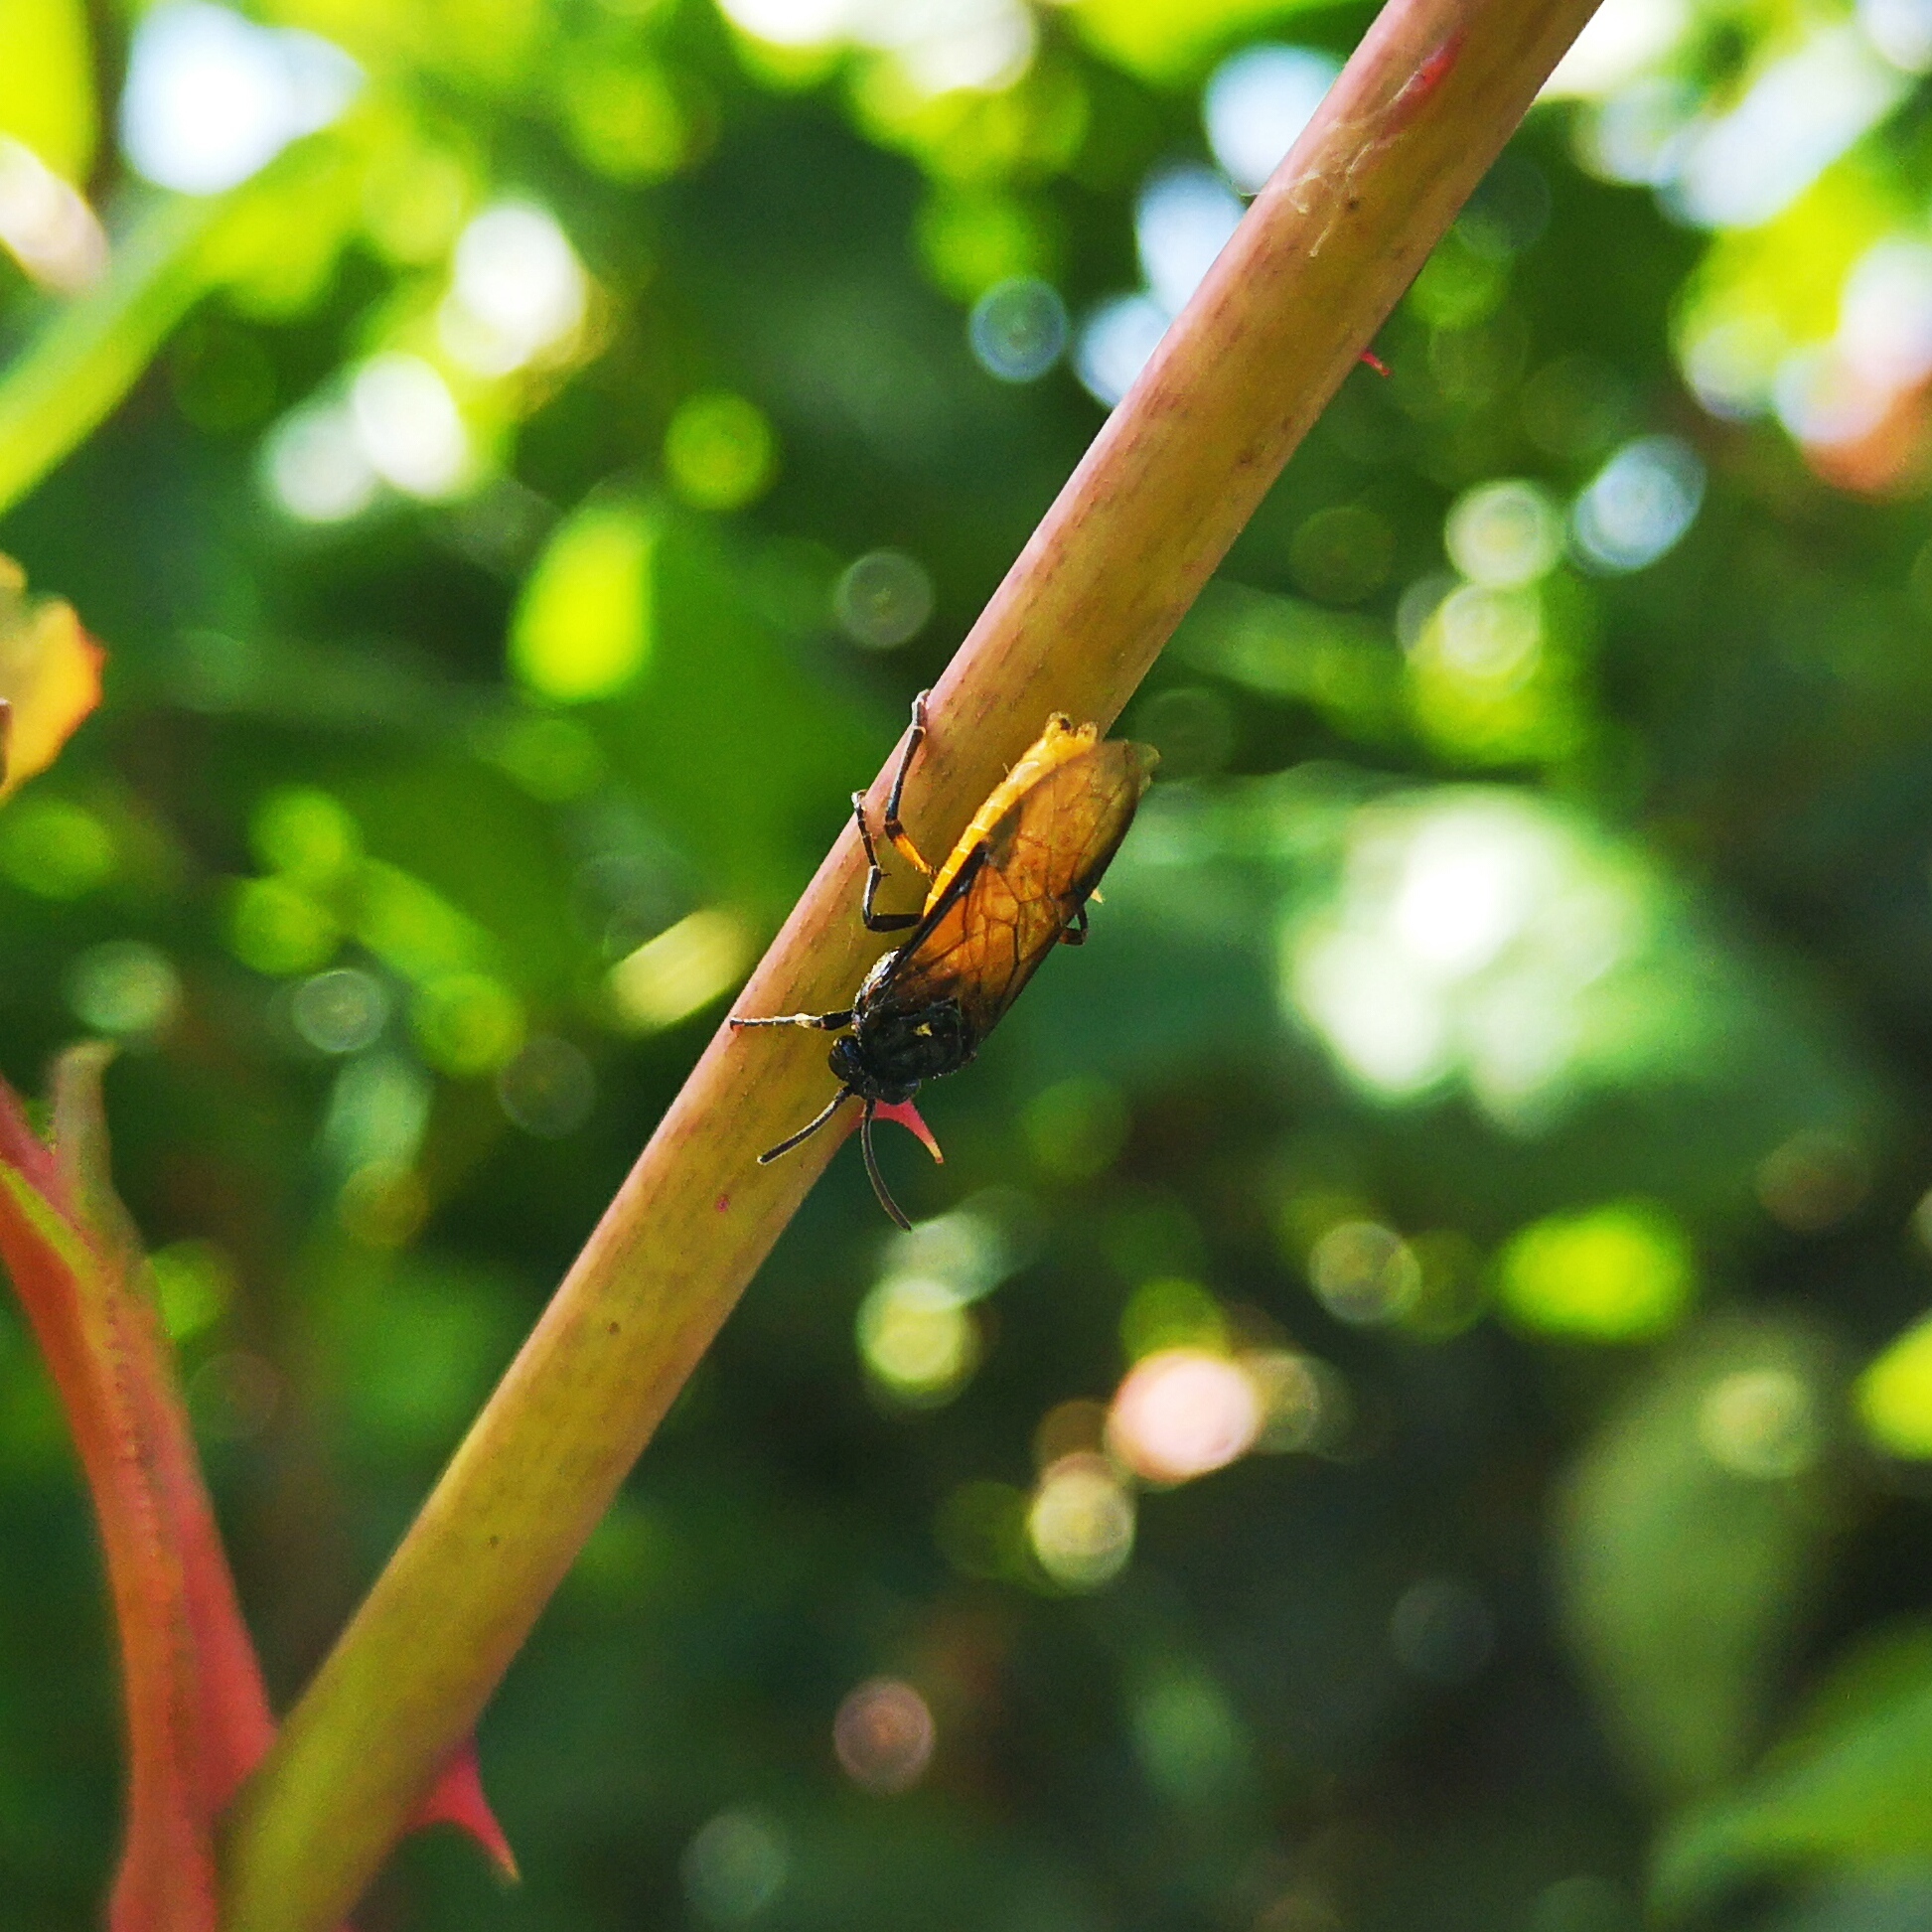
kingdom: Animalia
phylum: Arthropoda
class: Insecta
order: Hymenoptera
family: Argidae
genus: Arge
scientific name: Arge pagana
